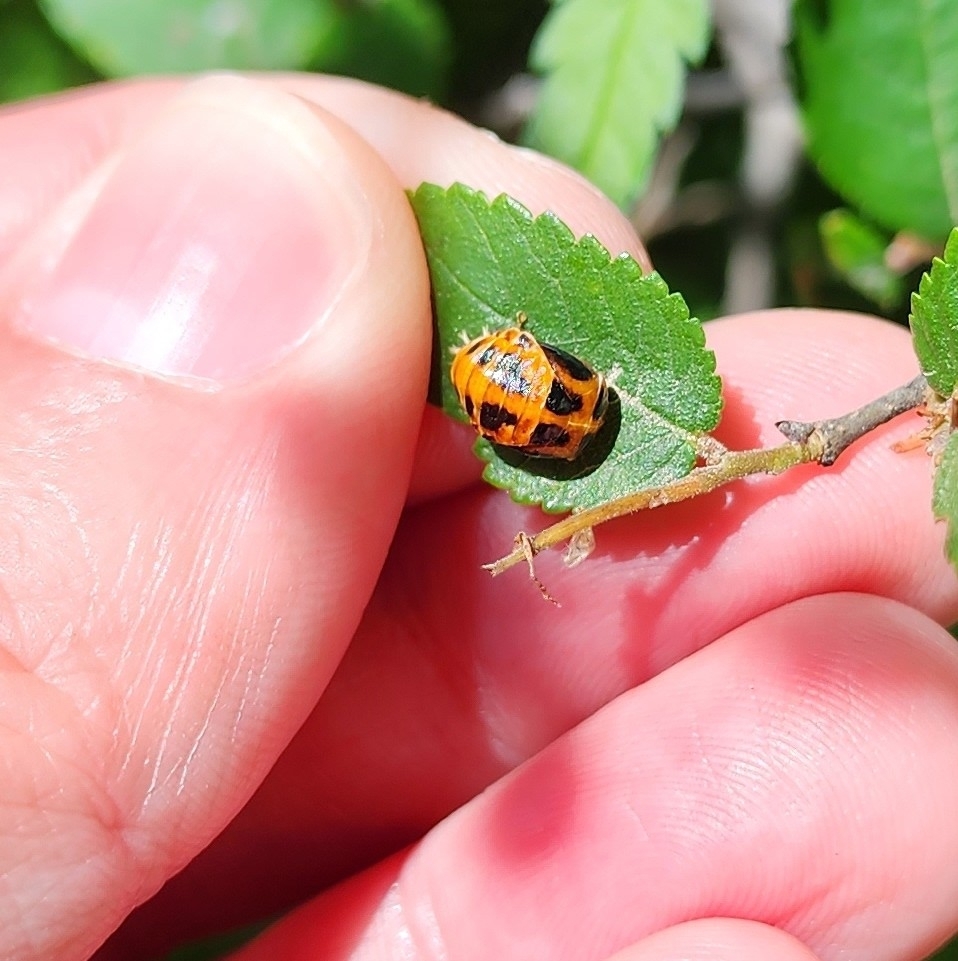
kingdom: Animalia
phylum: Arthropoda
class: Insecta
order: Coleoptera
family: Coccinellidae
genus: Harmonia
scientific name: Harmonia axyridis
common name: Harlequin ladybird
